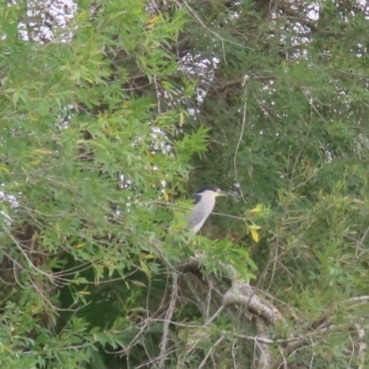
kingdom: Animalia
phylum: Chordata
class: Aves
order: Pelecaniformes
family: Ardeidae
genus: Nycticorax
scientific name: Nycticorax nycticorax
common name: Black-crowned night heron
